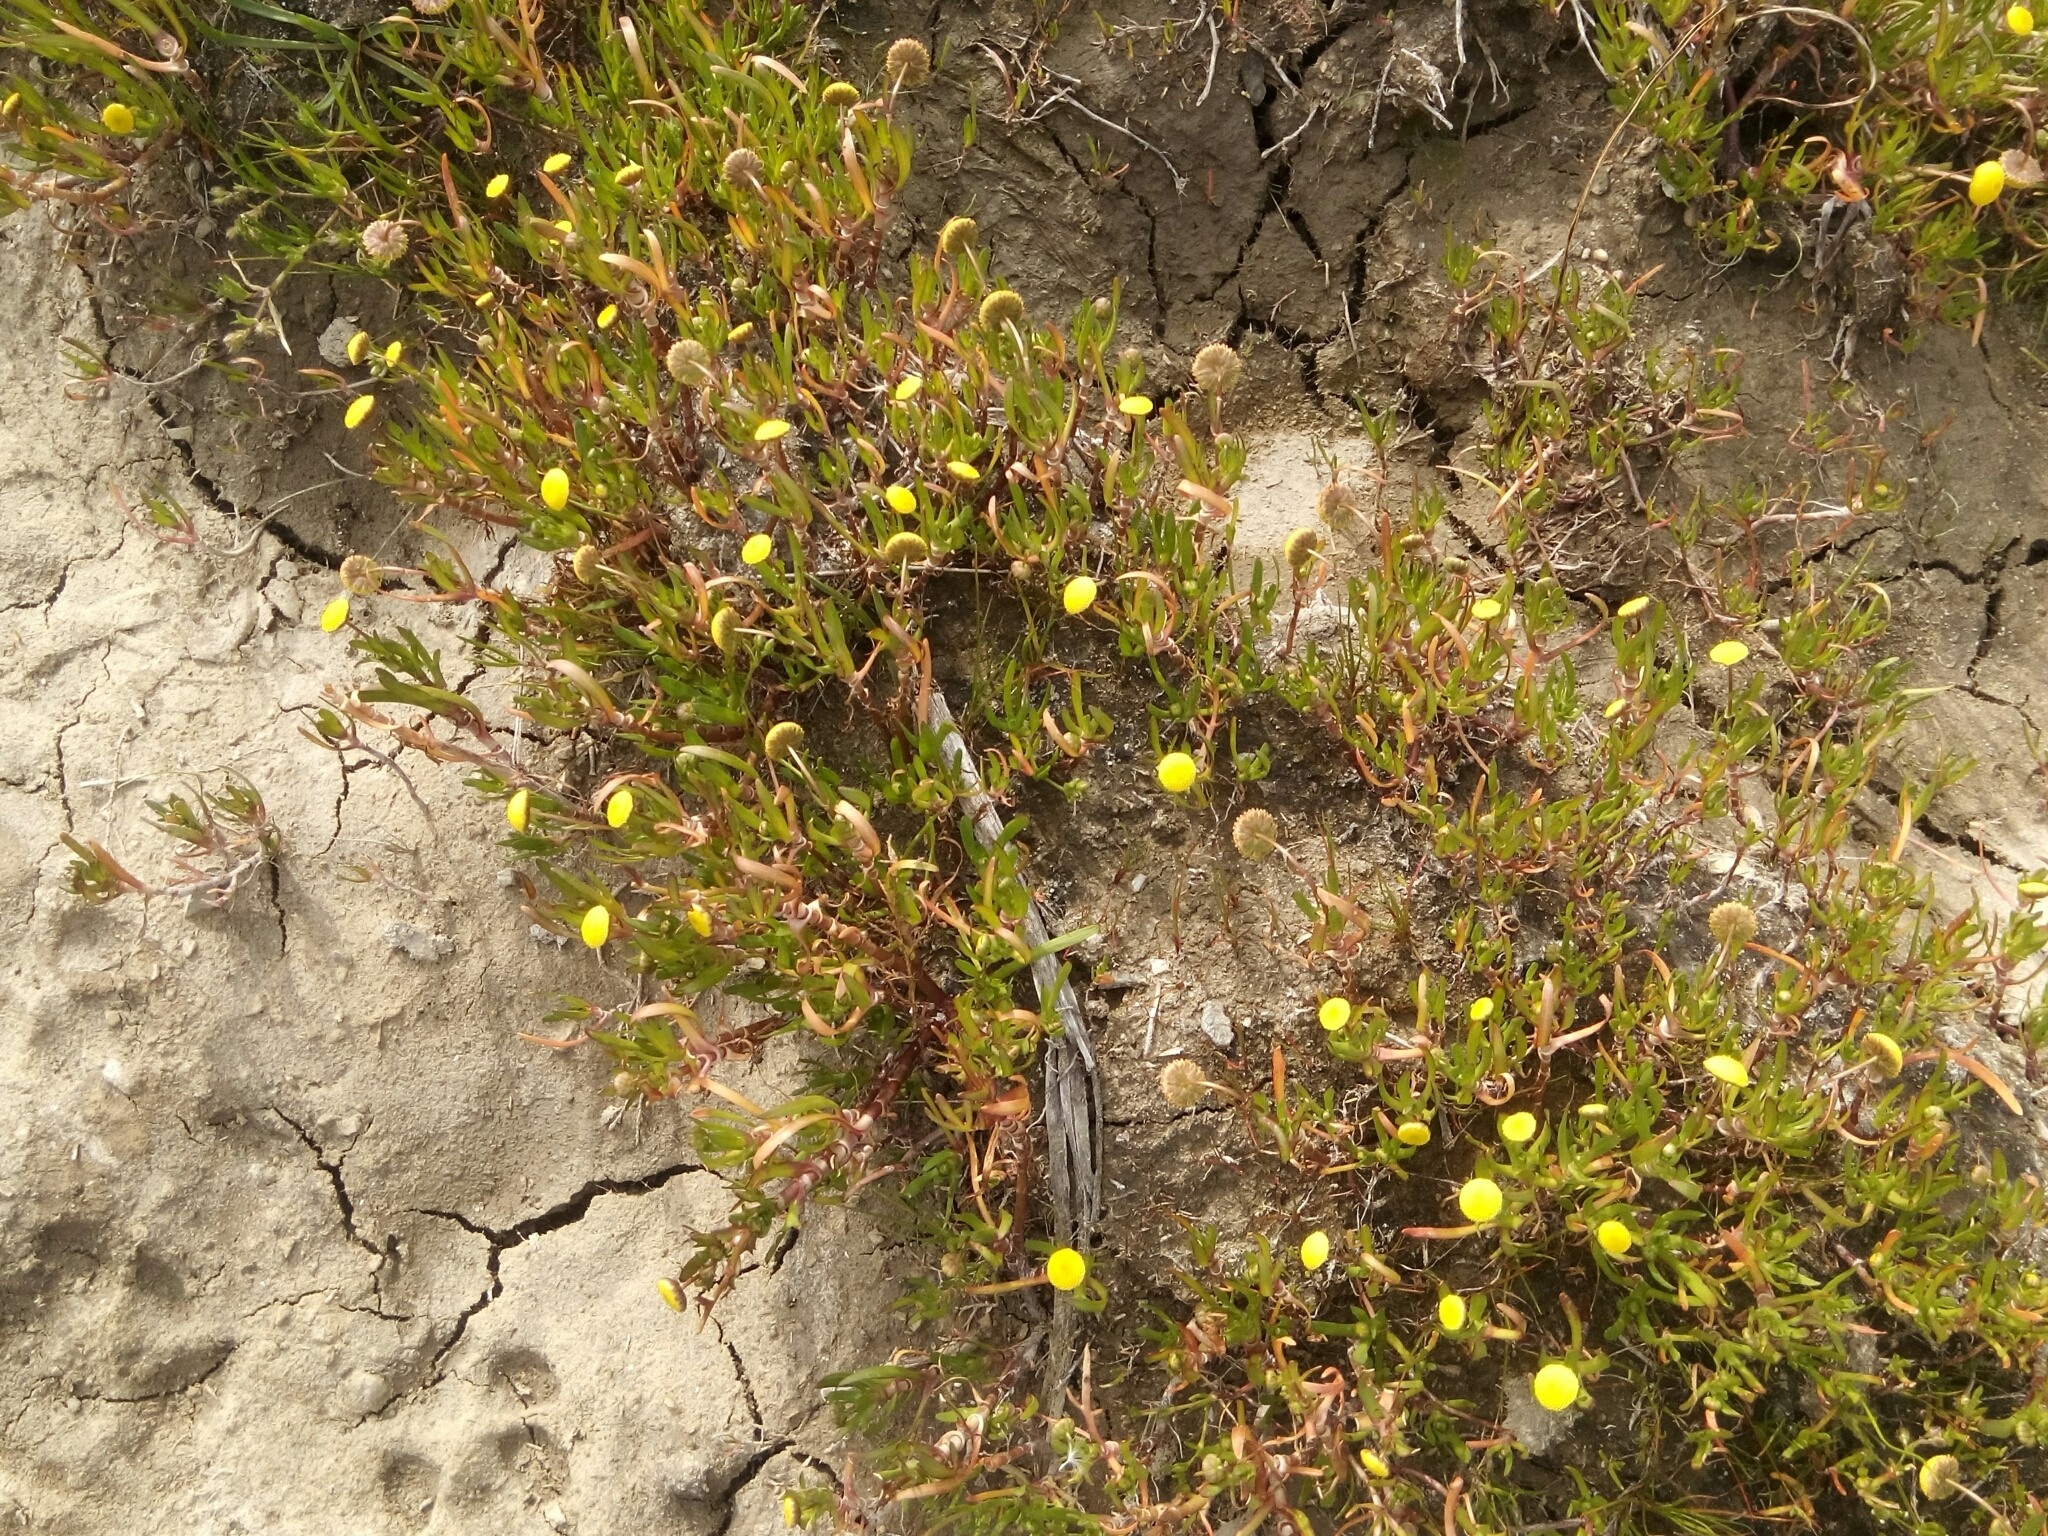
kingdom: Plantae
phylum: Tracheophyta
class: Magnoliopsida
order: Asterales
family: Asteraceae
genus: Cotula
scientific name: Cotula coronopifolia
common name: Buttonweed
